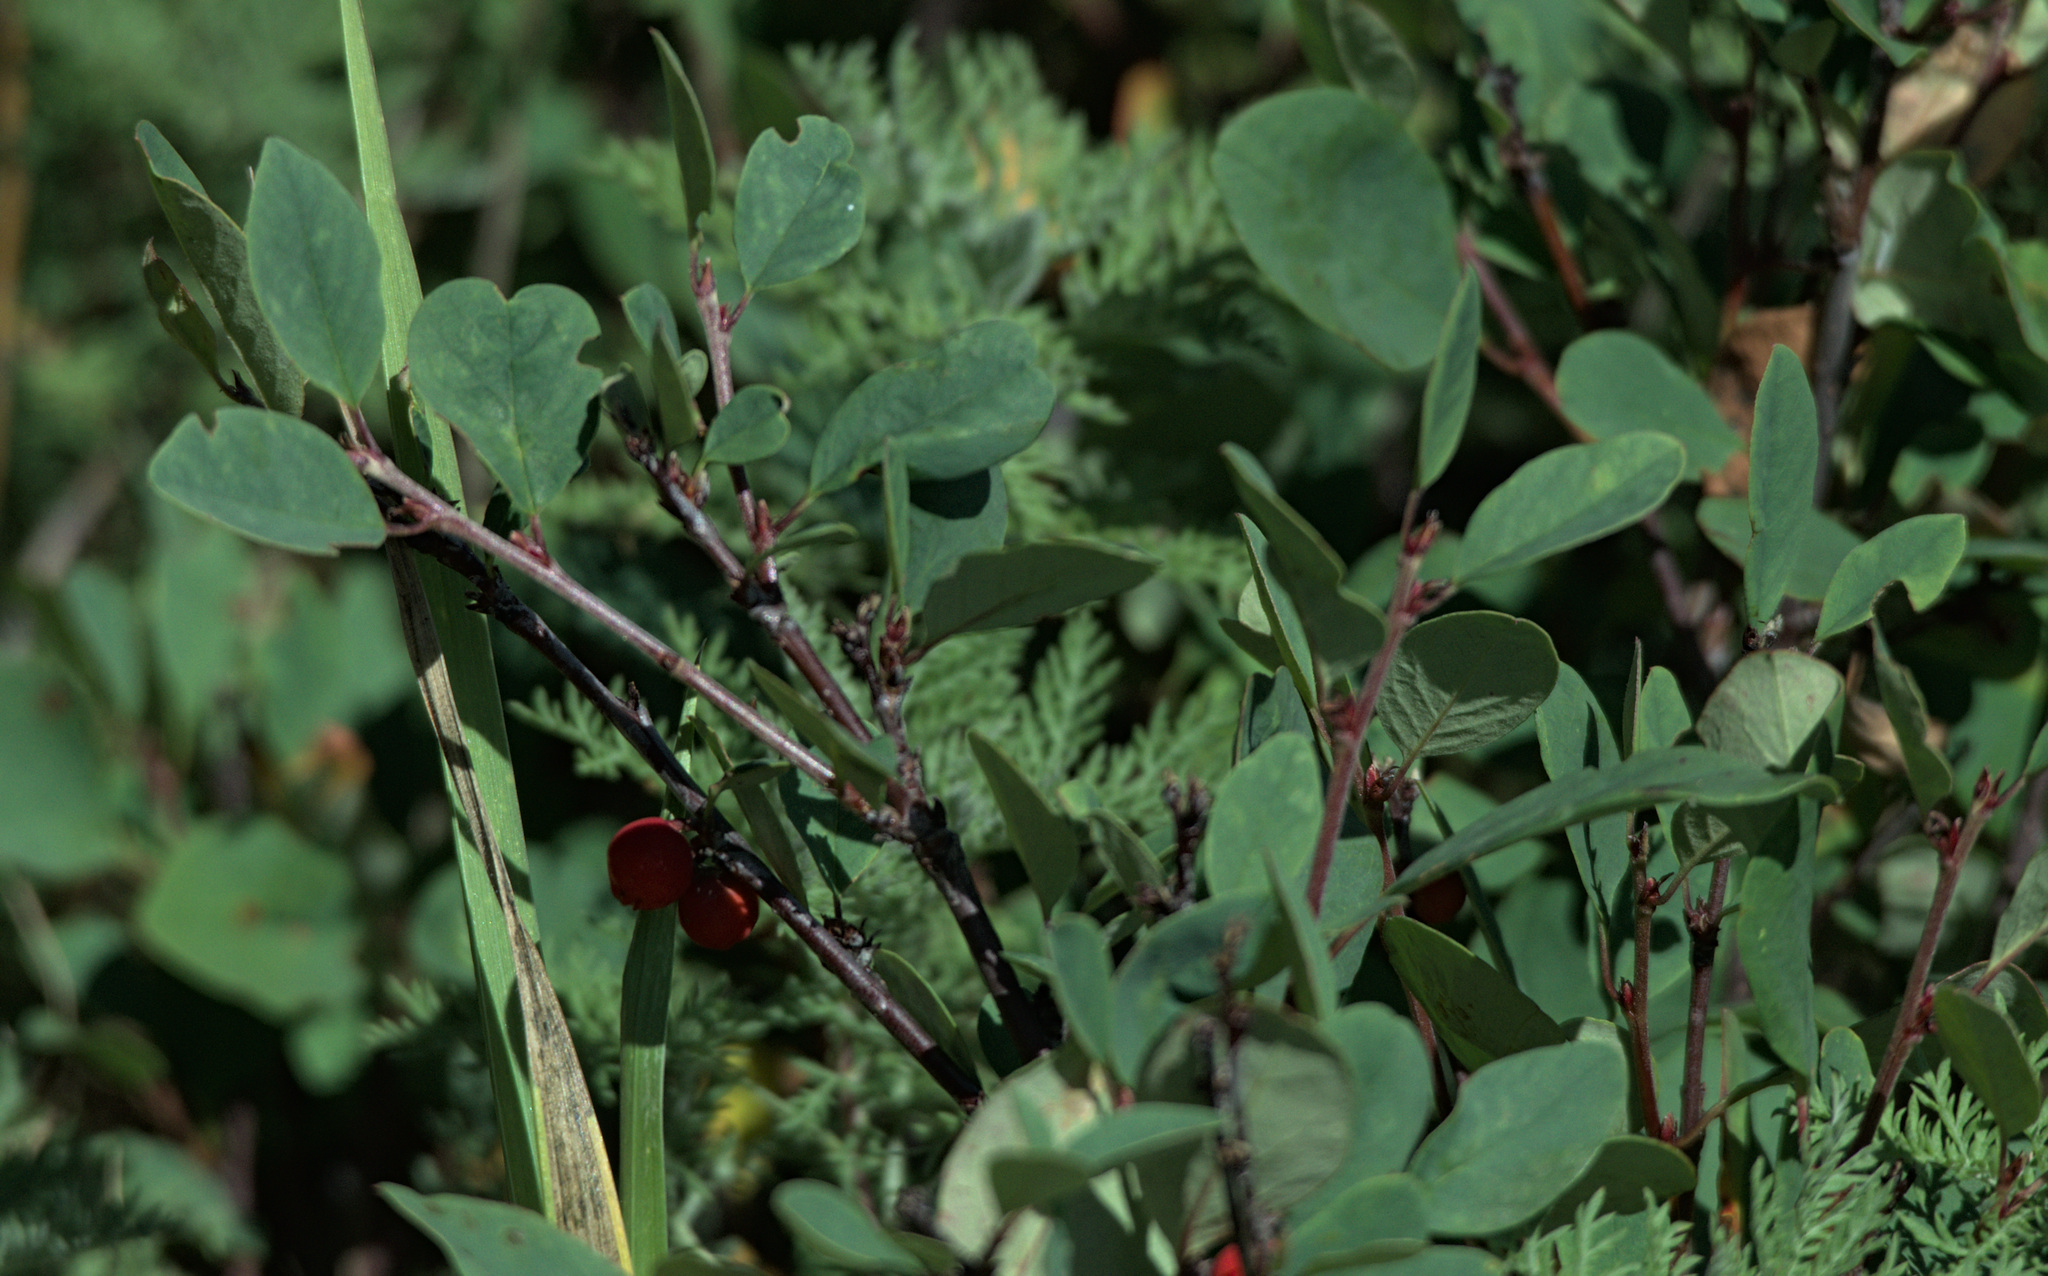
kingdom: Plantae
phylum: Tracheophyta
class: Magnoliopsida
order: Rosales
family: Rosaceae
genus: Cotoneaster
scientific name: Cotoneaster uniflorus
